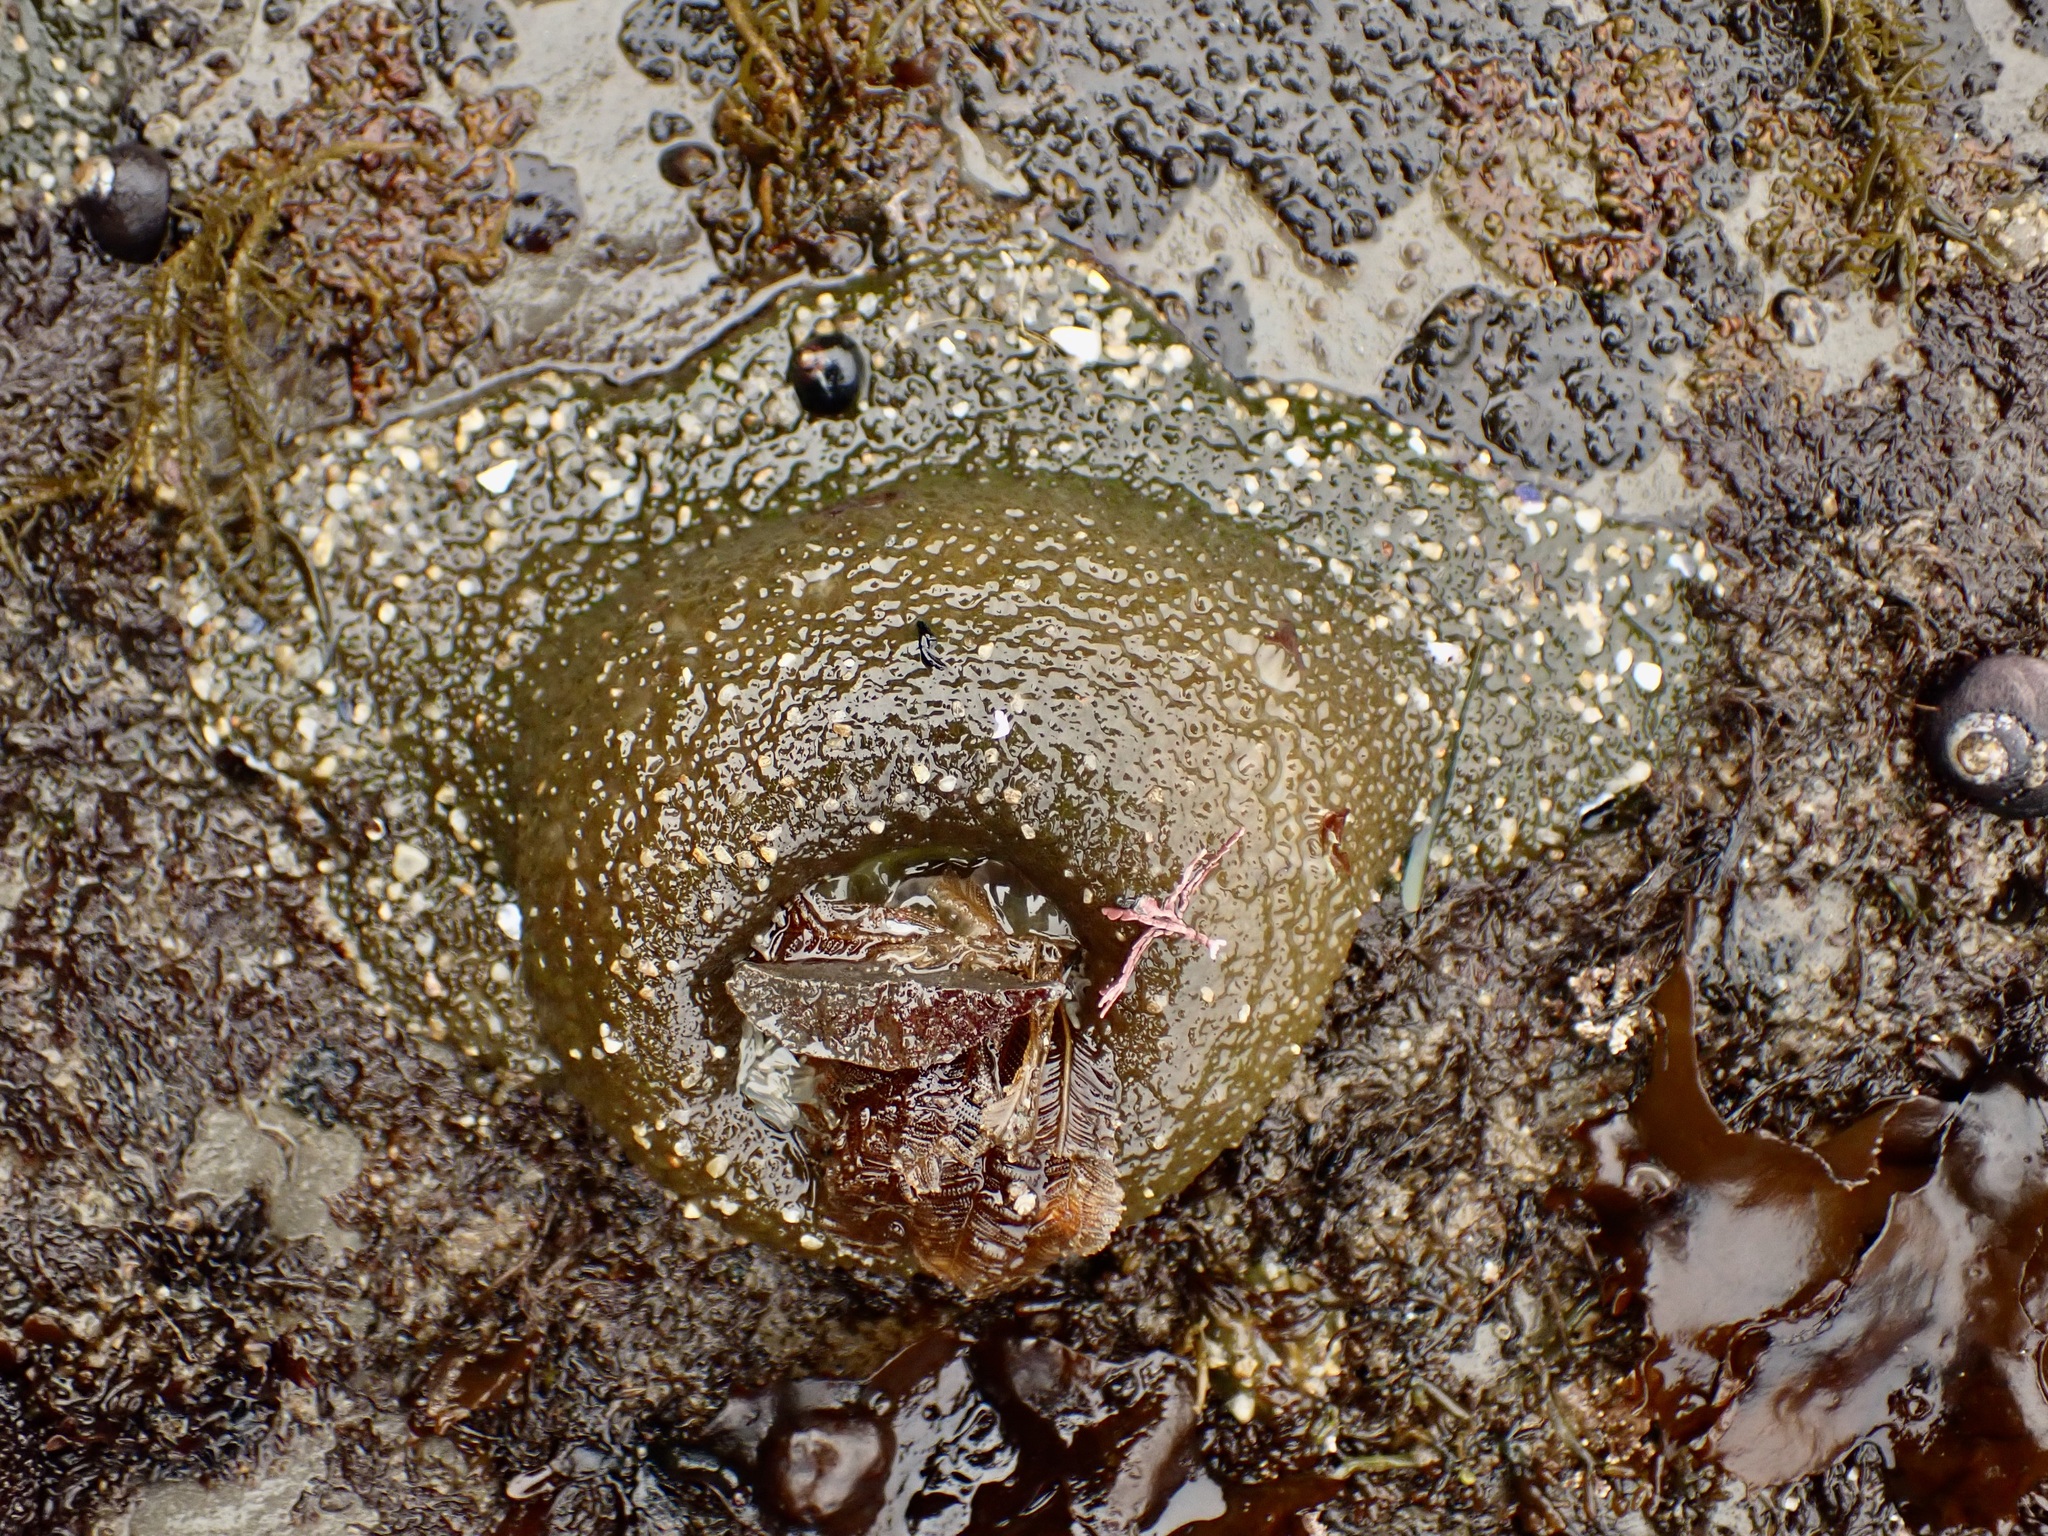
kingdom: Animalia
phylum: Cnidaria
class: Anthozoa
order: Actiniaria
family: Actiniidae
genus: Anthopleura
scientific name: Anthopleura xanthogrammica
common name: Giant green anemone
